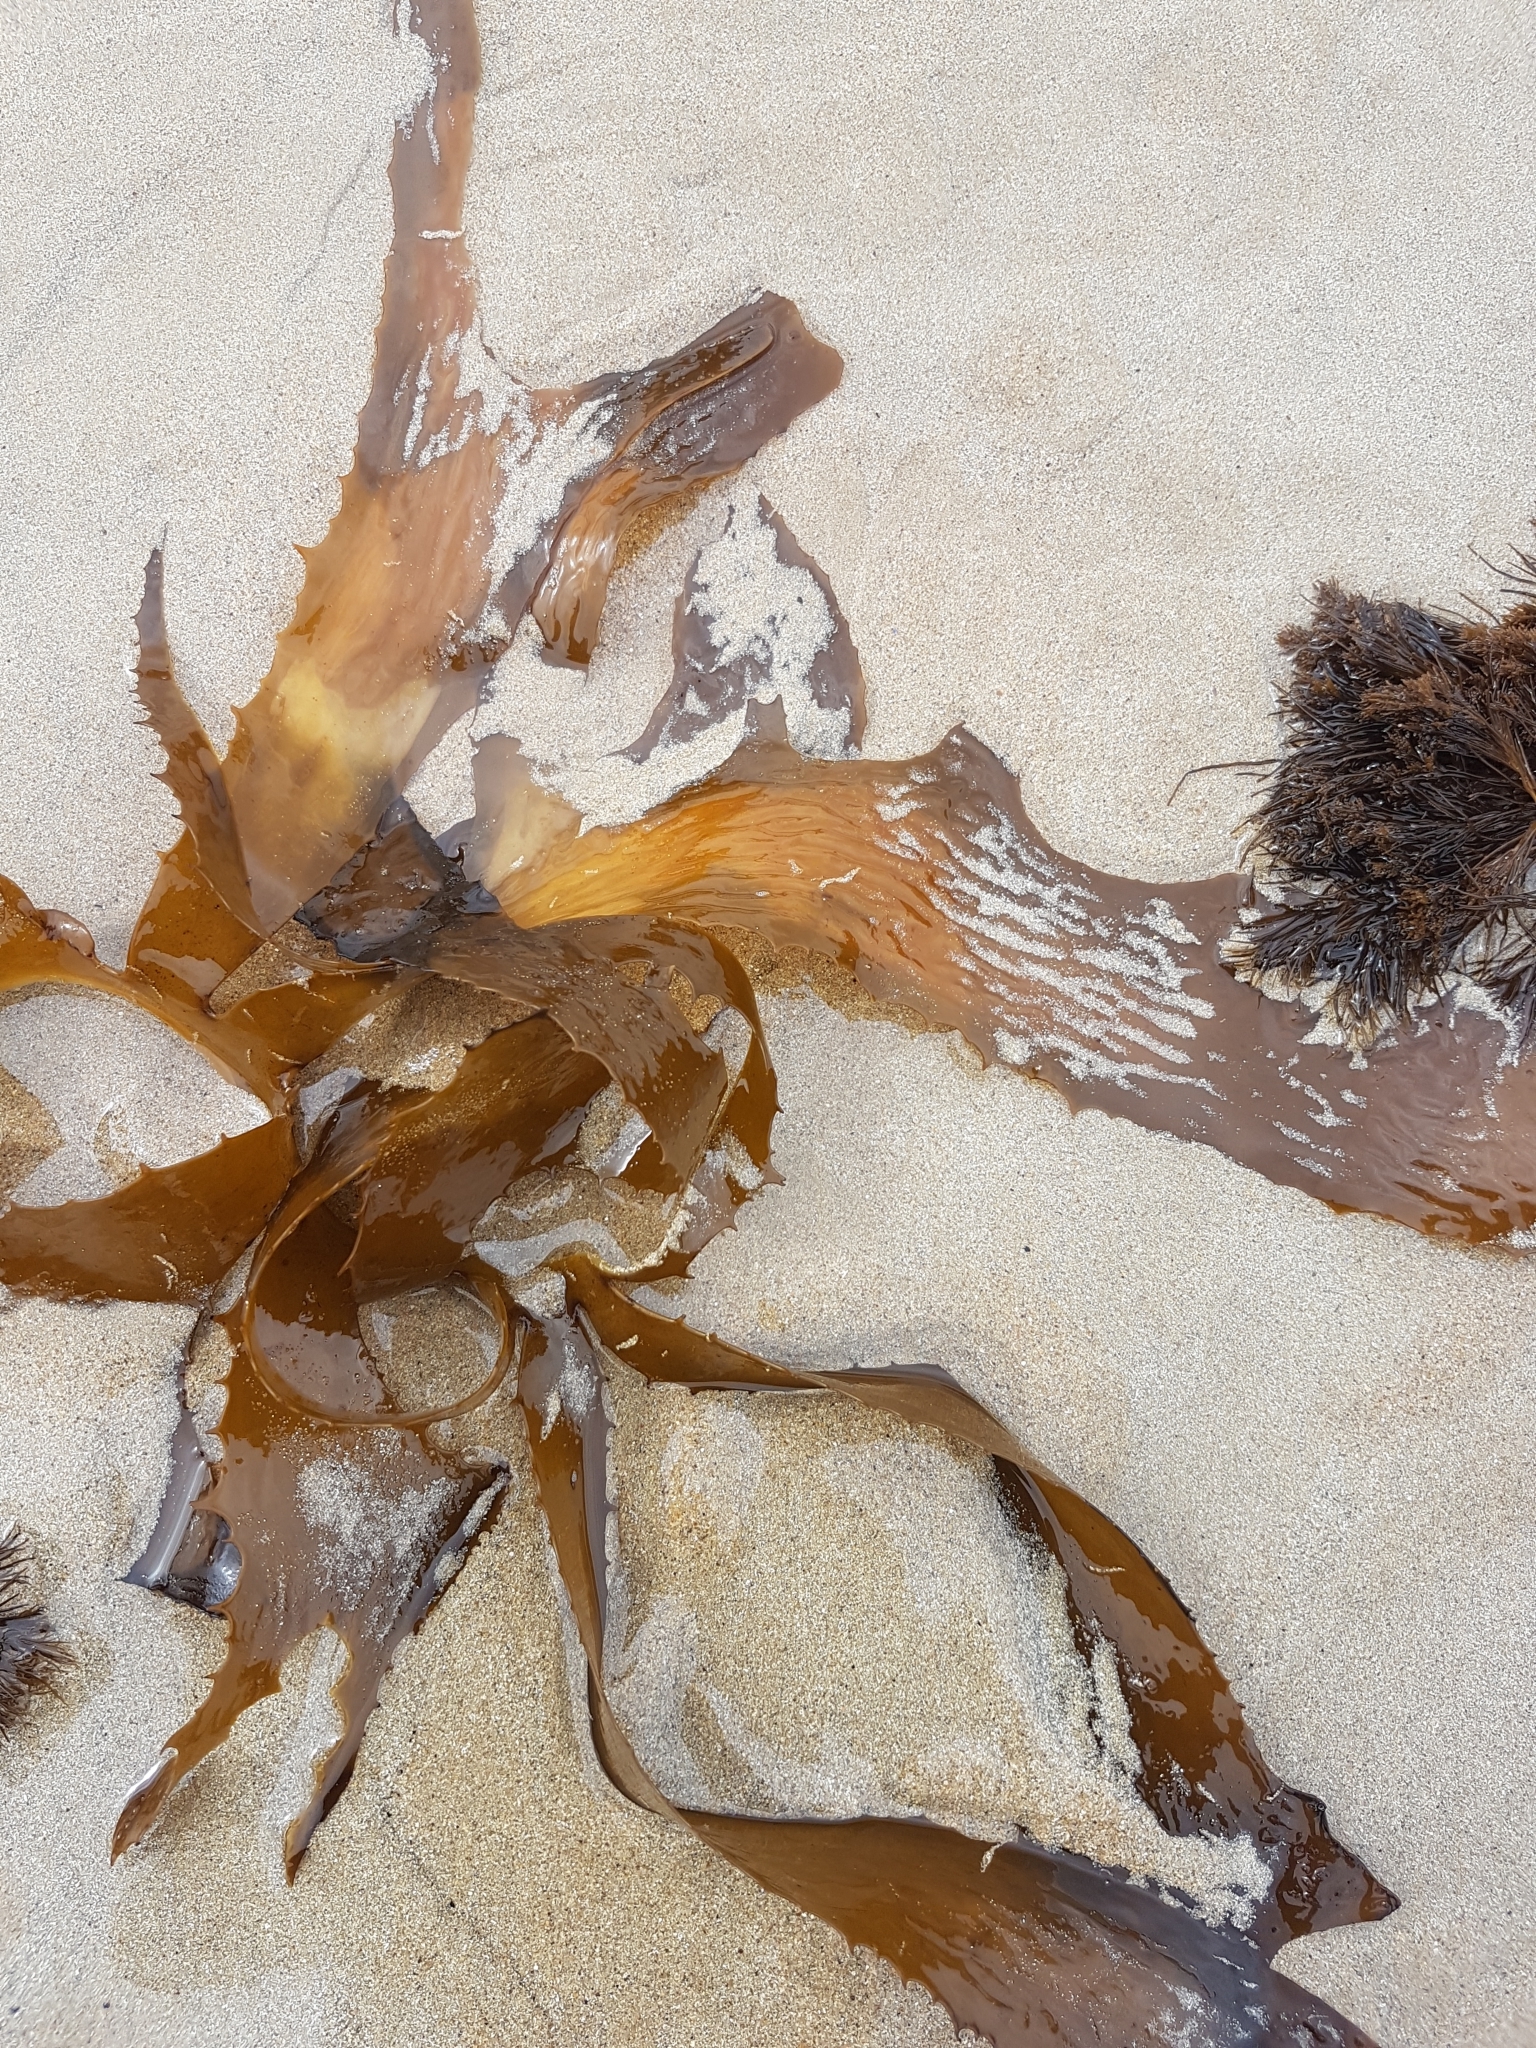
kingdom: Chromista
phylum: Ochrophyta
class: Phaeophyceae
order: Laminariales
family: Lessoniaceae
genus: Ecklonia
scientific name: Ecklonia radiata
